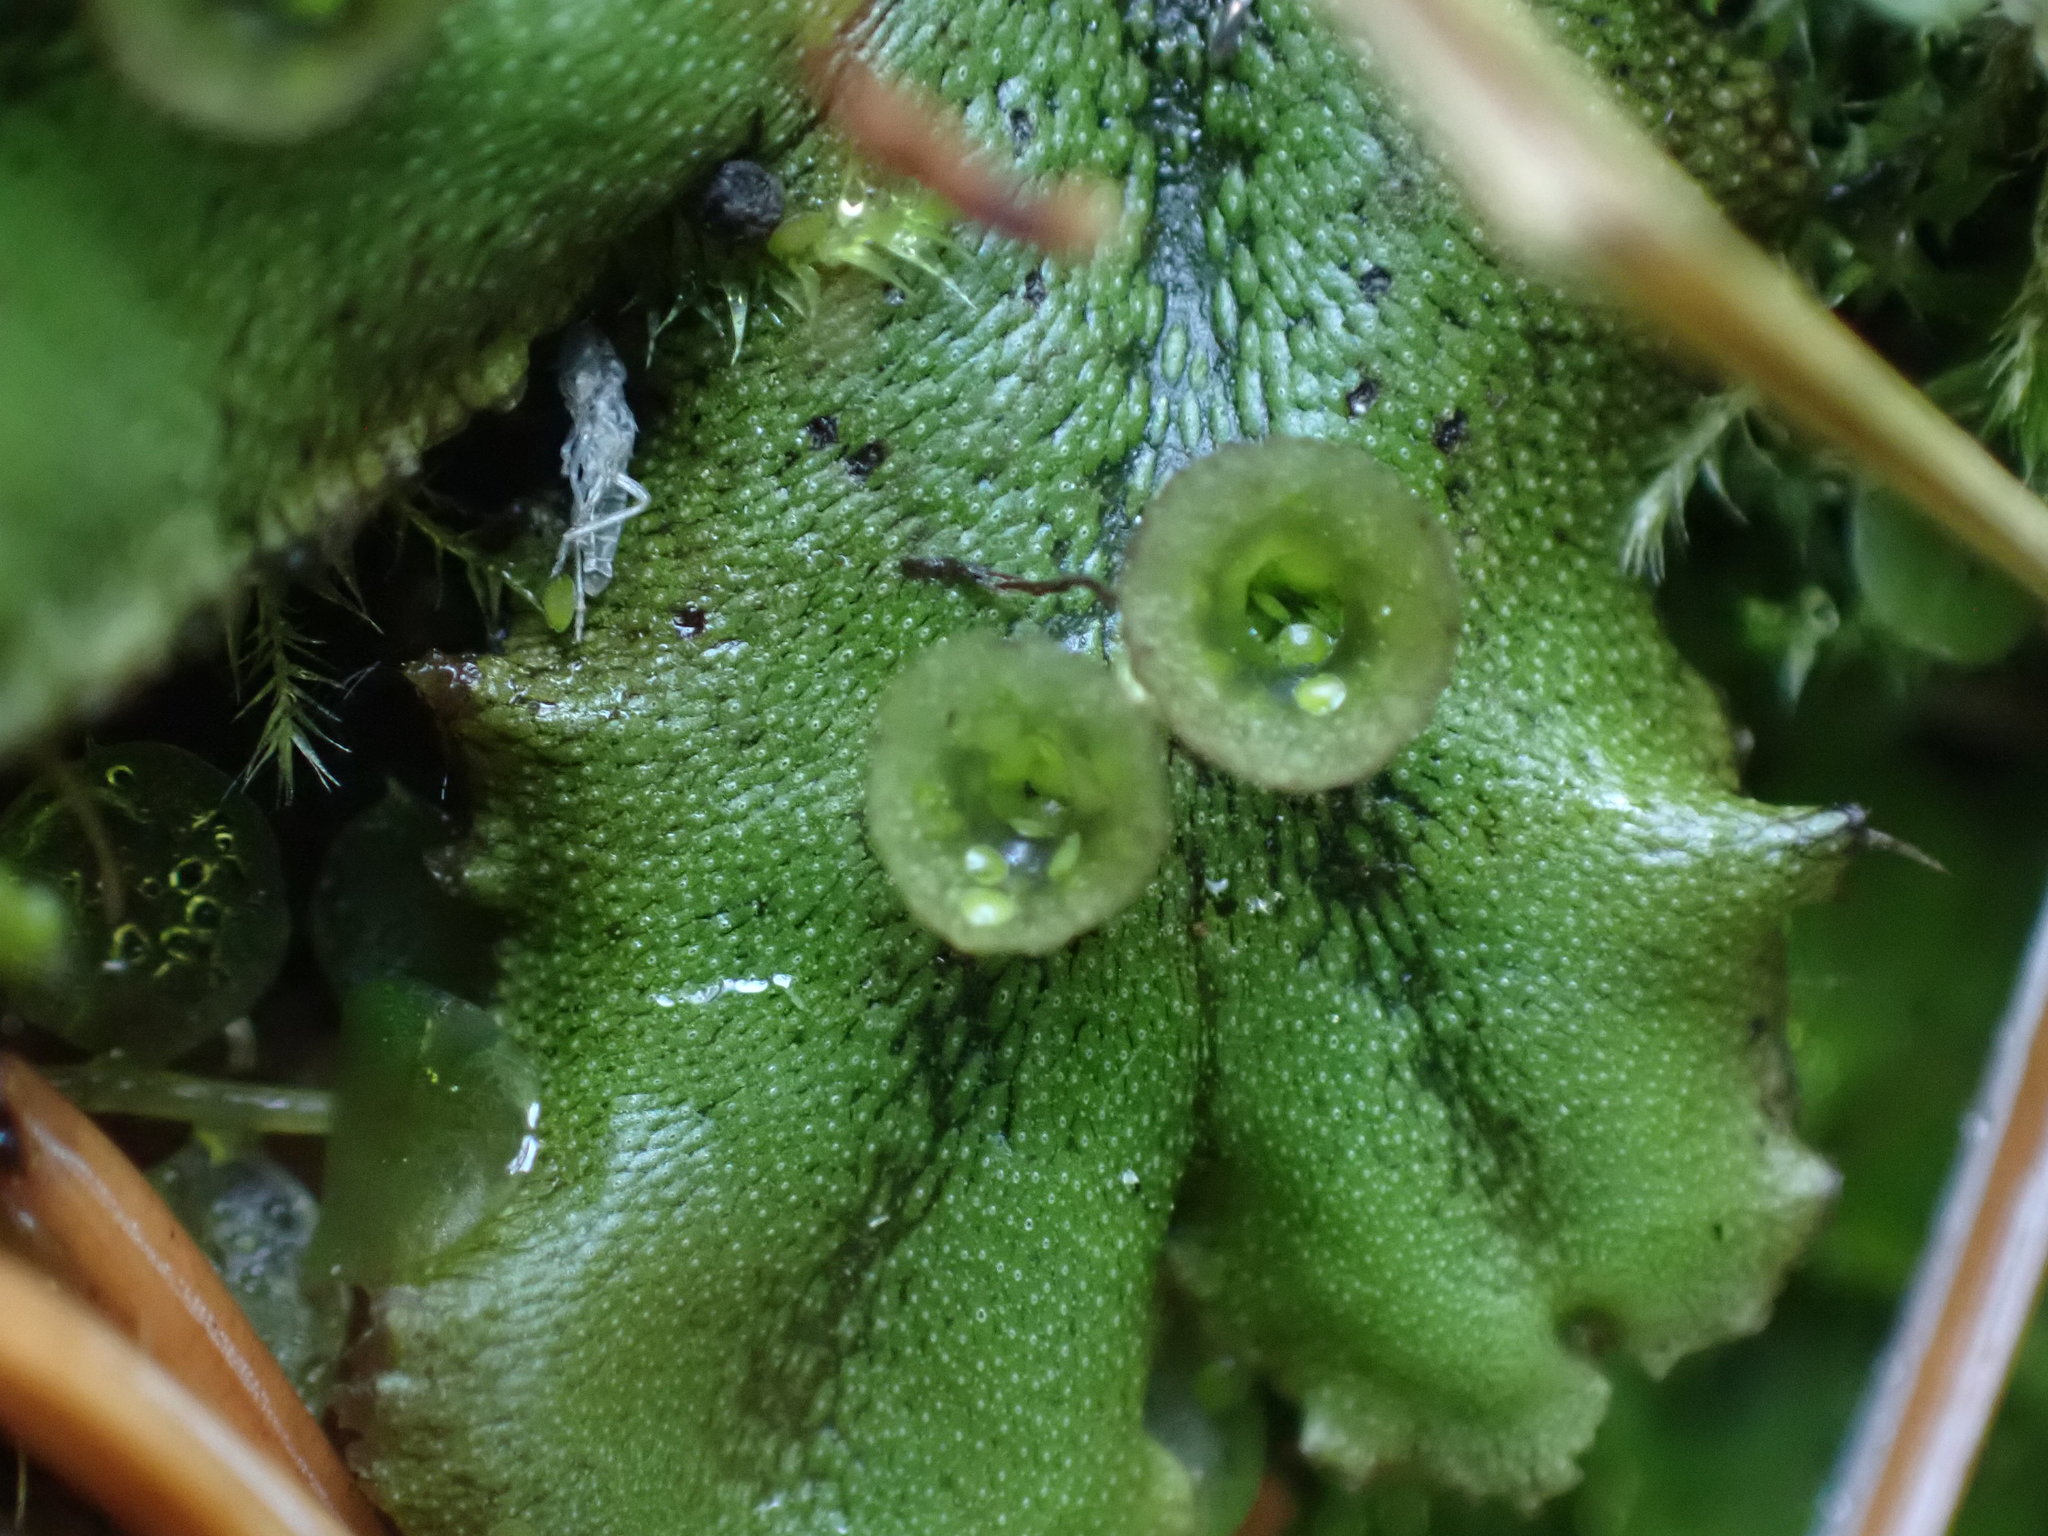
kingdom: Plantae
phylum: Marchantiophyta
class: Marchantiopsida
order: Marchantiales
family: Marchantiaceae
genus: Marchantia
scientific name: Marchantia polymorpha
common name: Common liverwort
